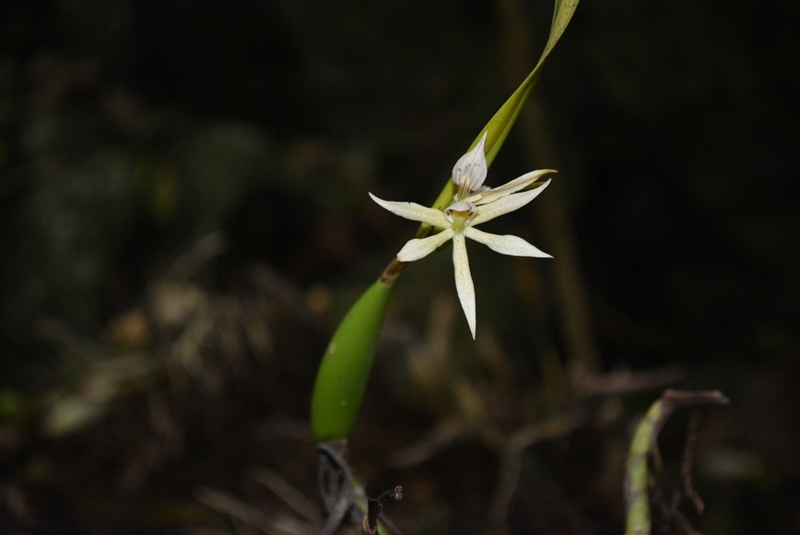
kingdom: Plantae
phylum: Tracheophyta
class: Liliopsida
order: Asparagales
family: Orchidaceae
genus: Prosthechea
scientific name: Prosthechea baculus
